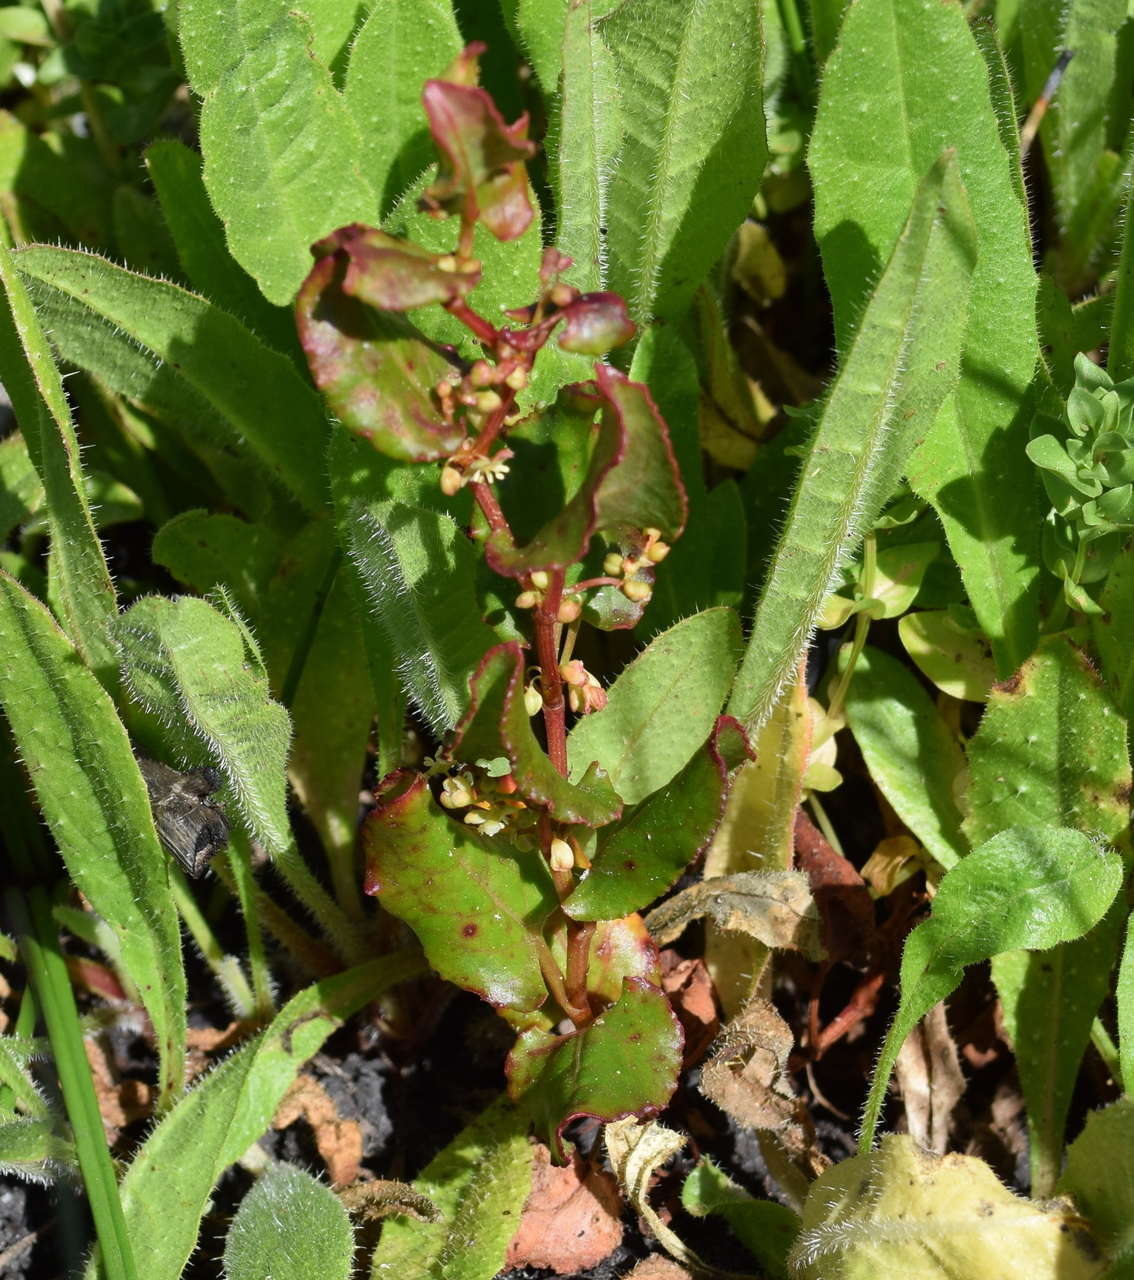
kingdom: Plantae
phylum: Tracheophyta
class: Magnoliopsida
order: Caryophyllales
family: Polygonaceae
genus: Muehlenbeckia
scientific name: Muehlenbeckia adpressa
